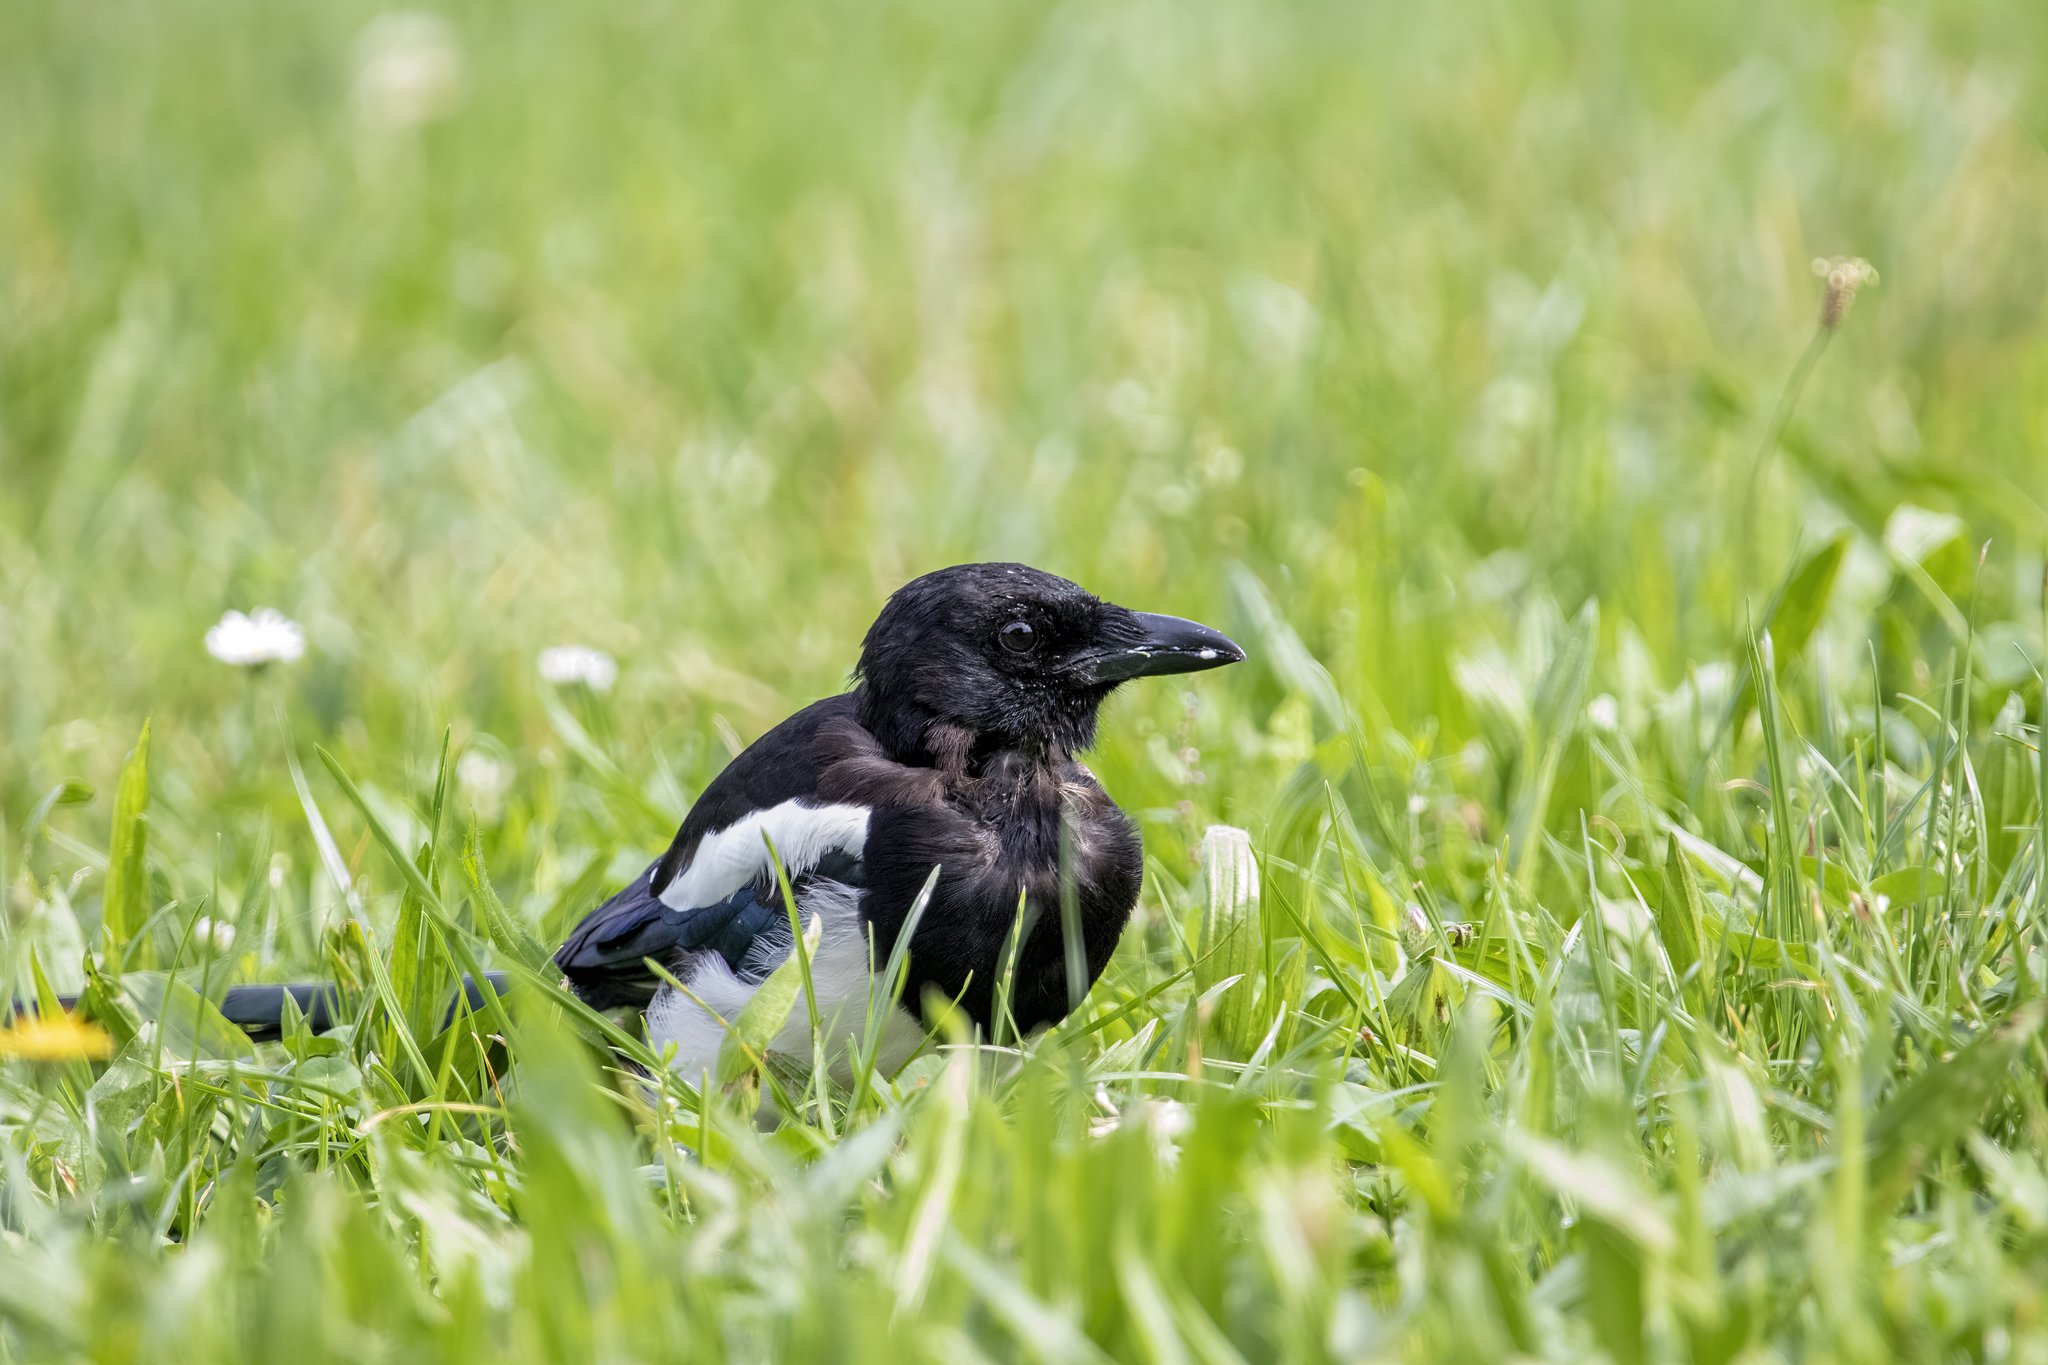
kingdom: Animalia
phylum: Chordata
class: Aves
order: Passeriformes
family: Corvidae
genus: Pica
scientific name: Pica pica
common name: Eurasian magpie
